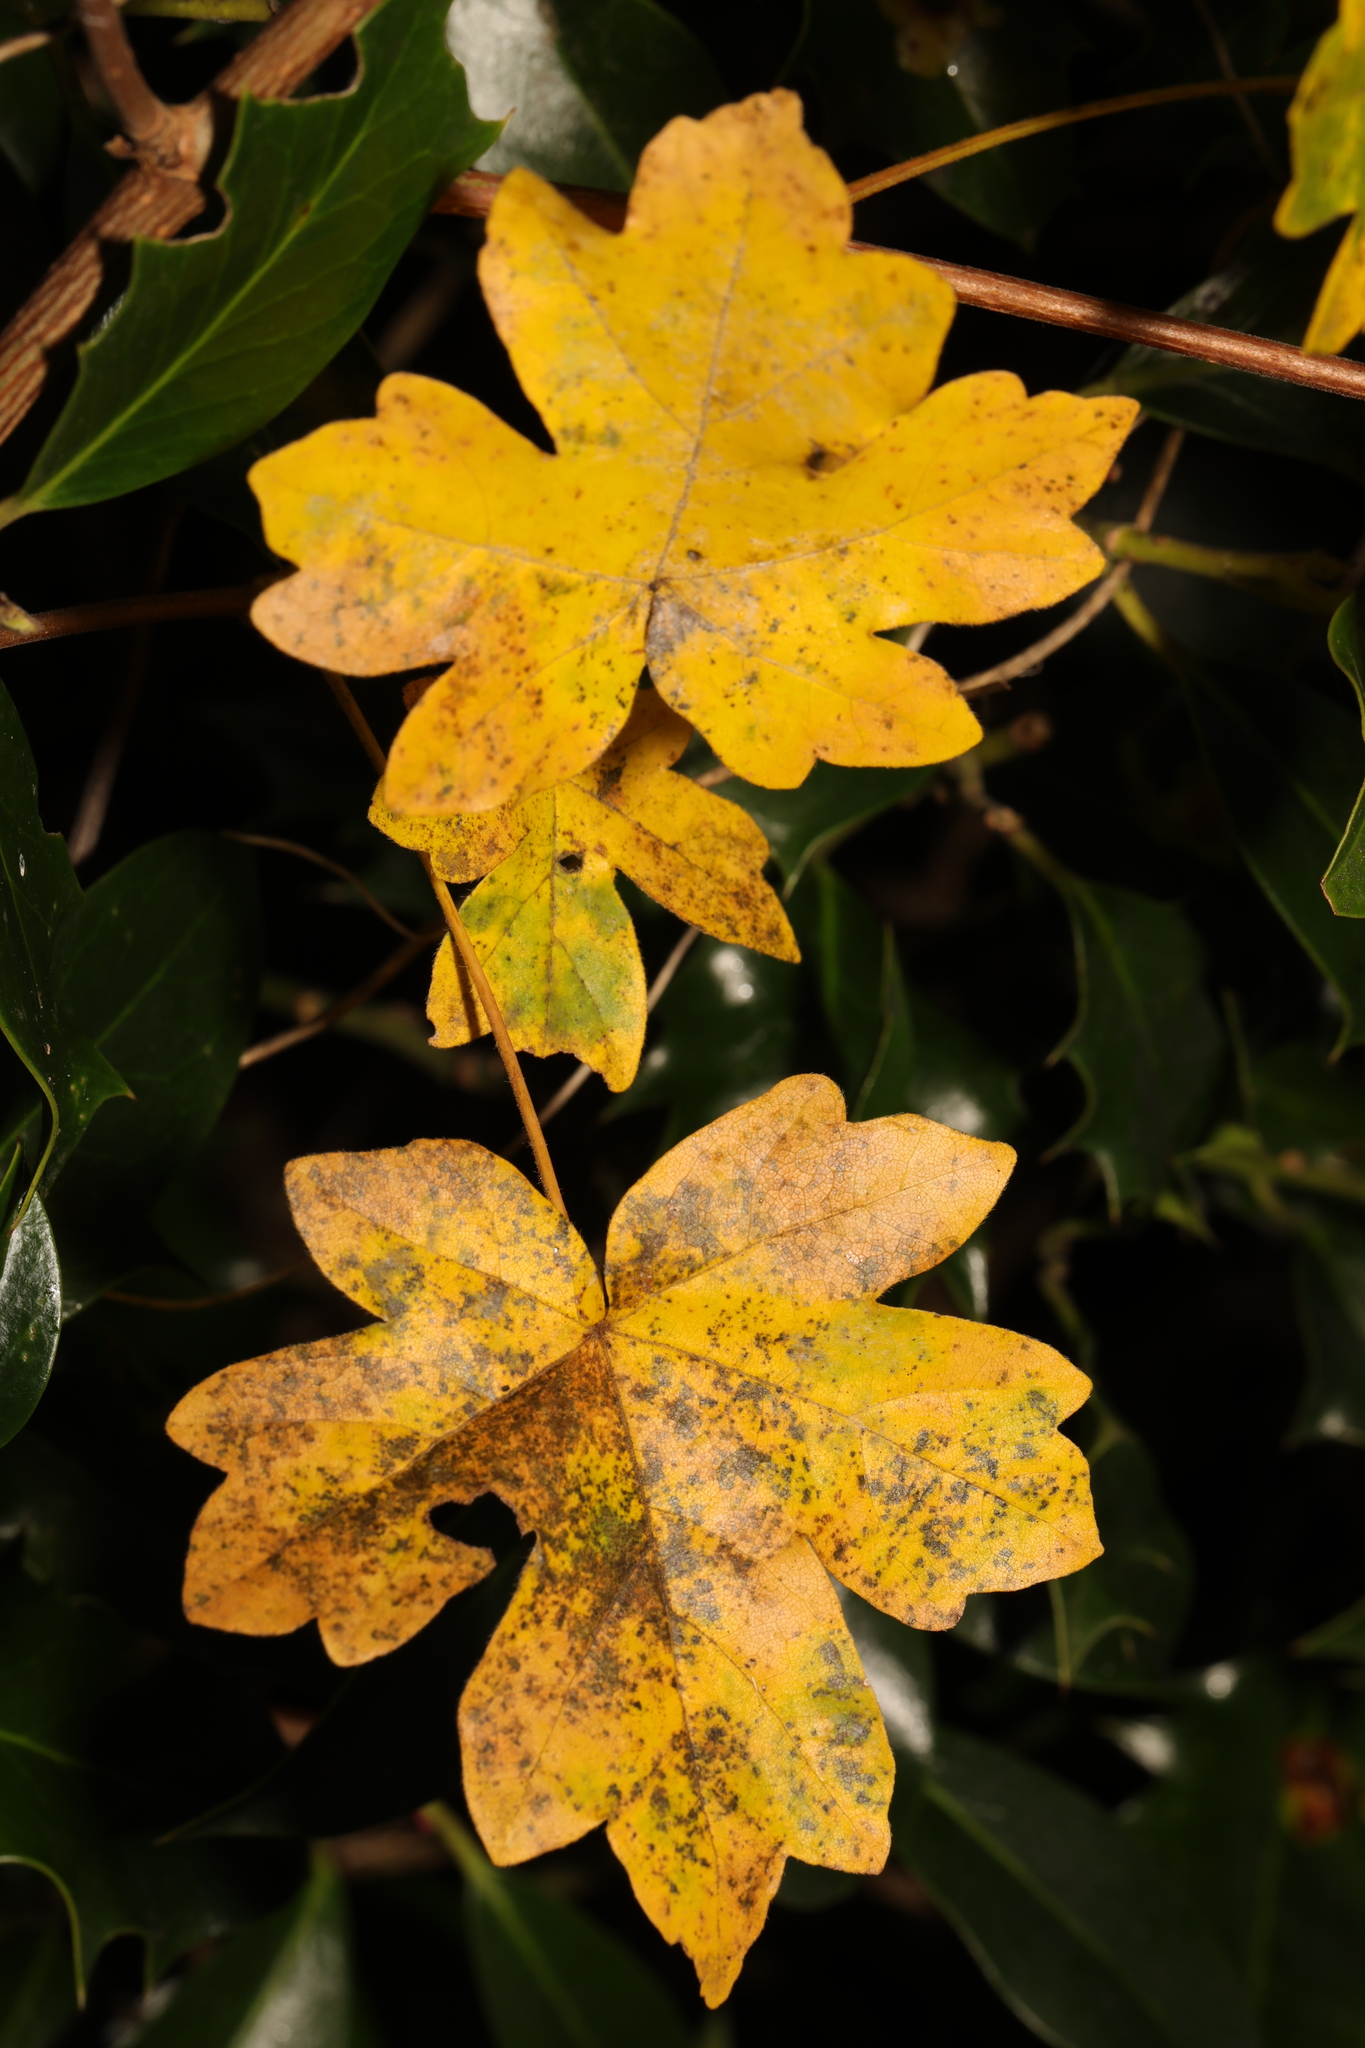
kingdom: Plantae
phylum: Tracheophyta
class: Magnoliopsida
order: Sapindales
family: Sapindaceae
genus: Acer
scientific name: Acer campestre
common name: Field maple
